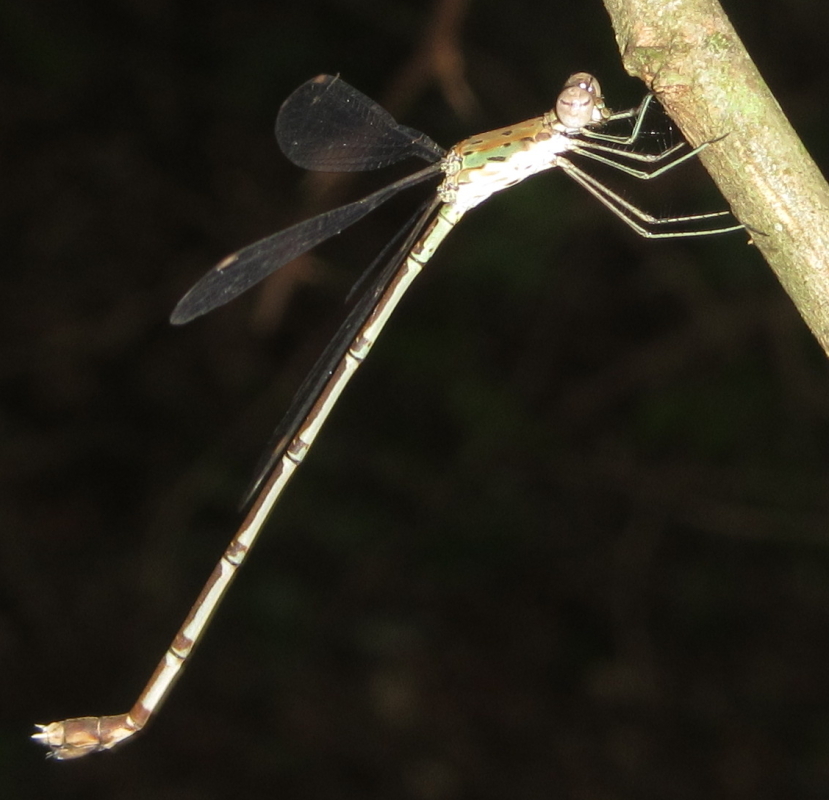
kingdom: Animalia
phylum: Arthropoda
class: Insecta
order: Odonata
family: Lestidae
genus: Lestes
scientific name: Lestes uncifer
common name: Sickle spreadwing
